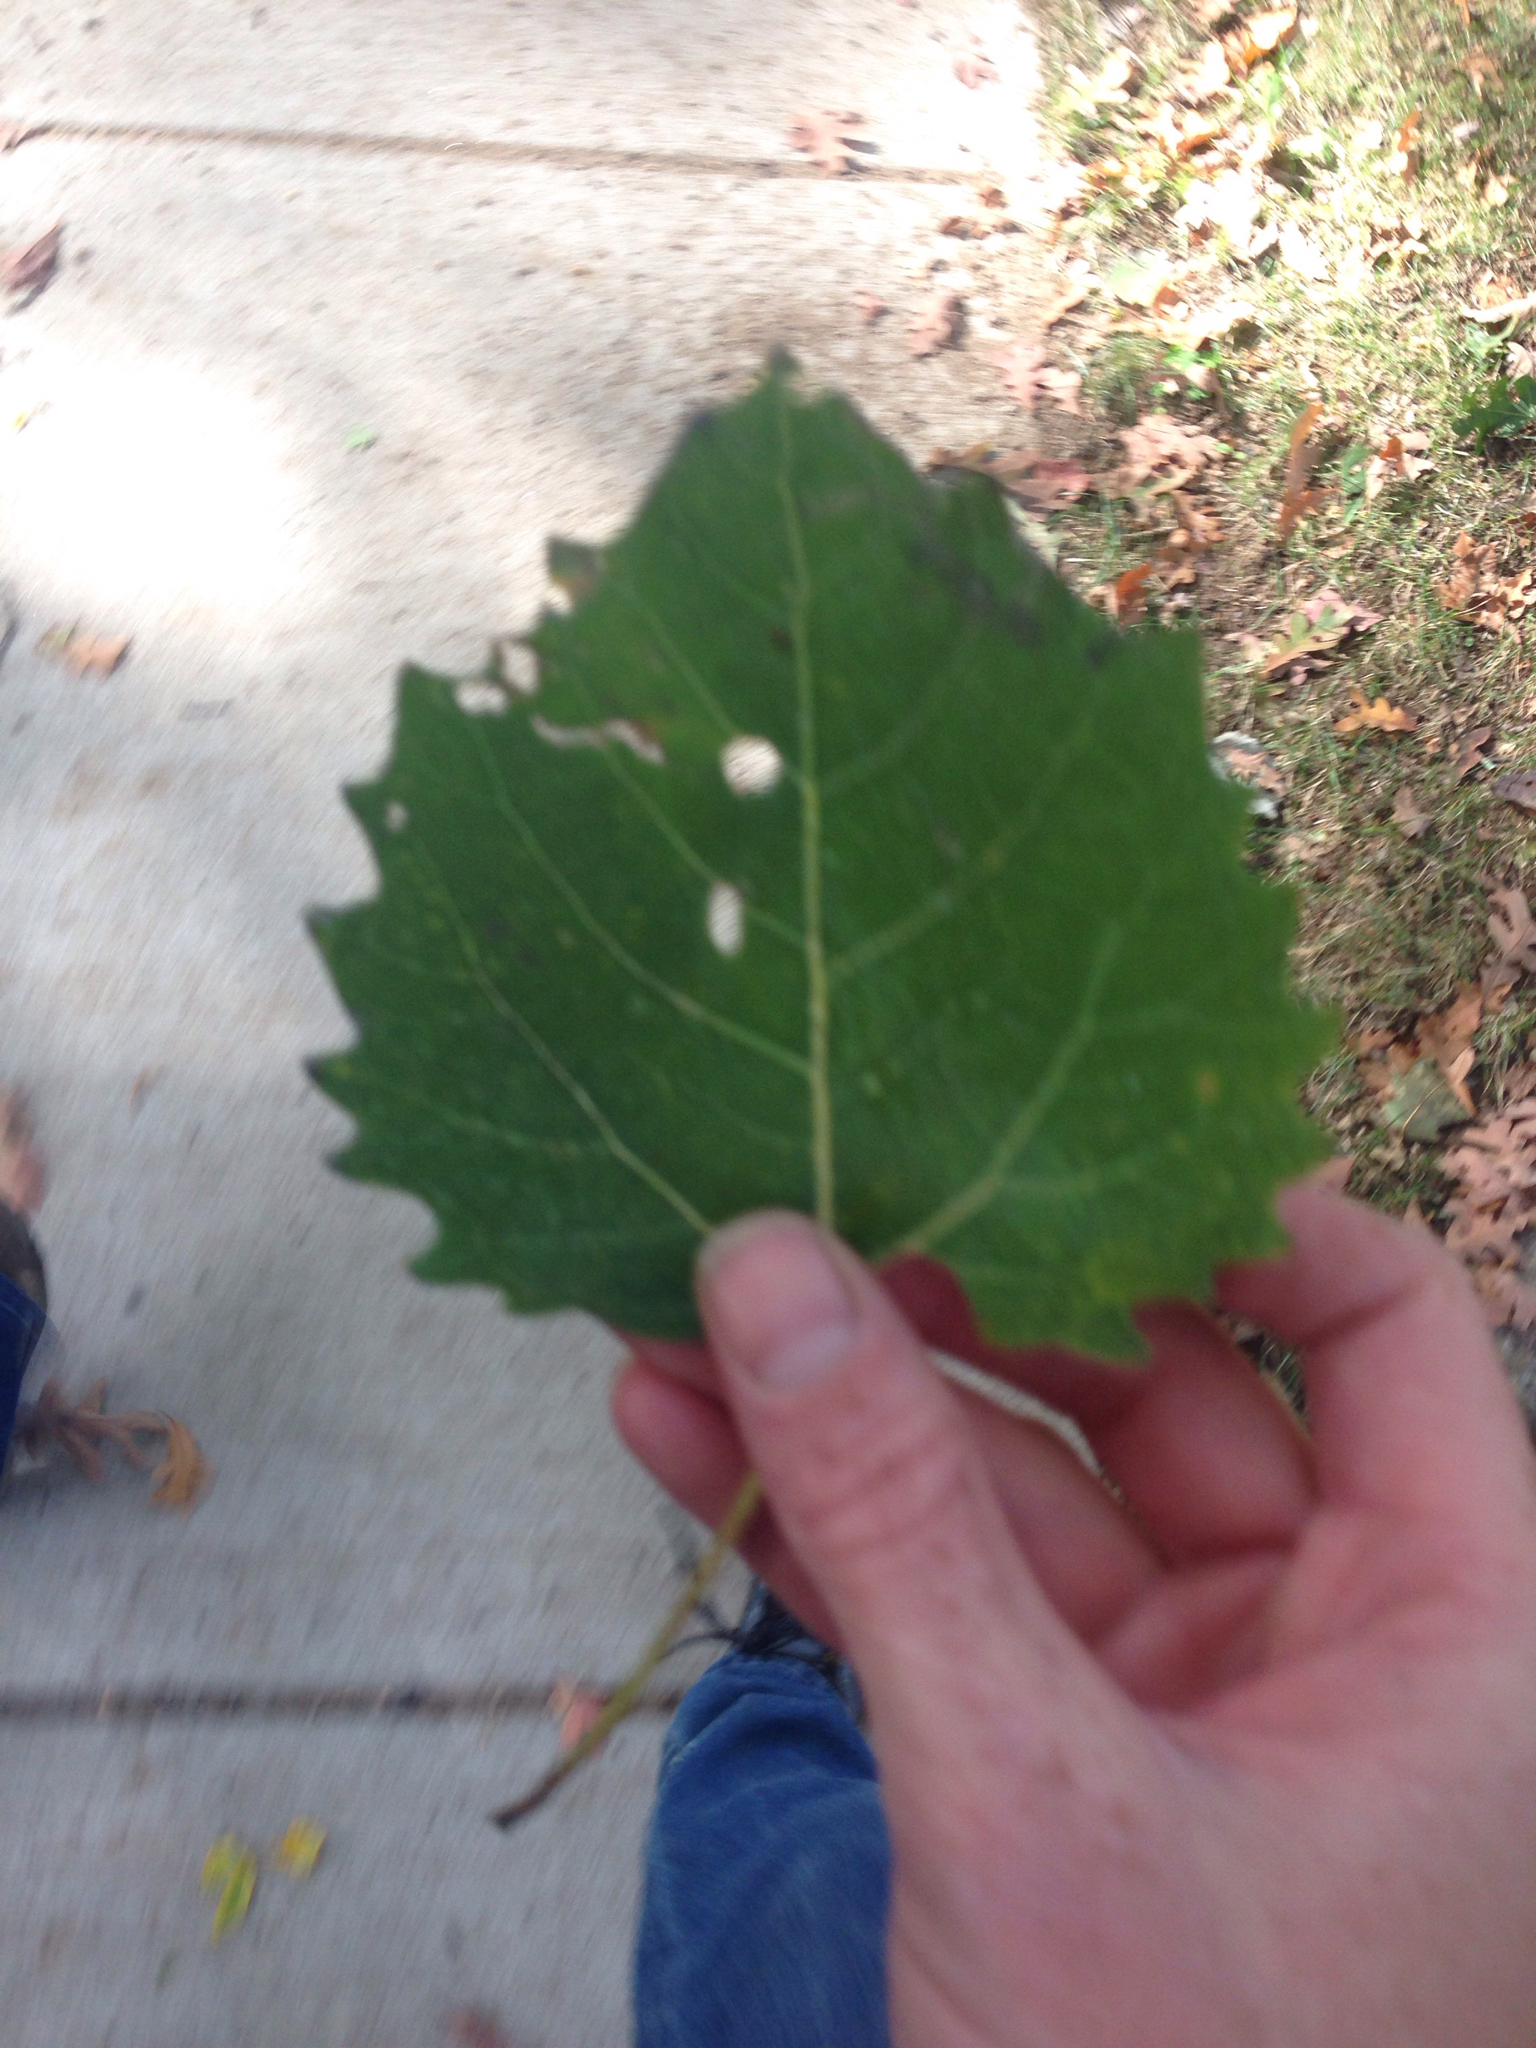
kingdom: Plantae
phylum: Tracheophyta
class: Magnoliopsida
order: Malpighiales
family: Salicaceae
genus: Populus
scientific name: Populus grandidentata
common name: Bigtooth aspen
